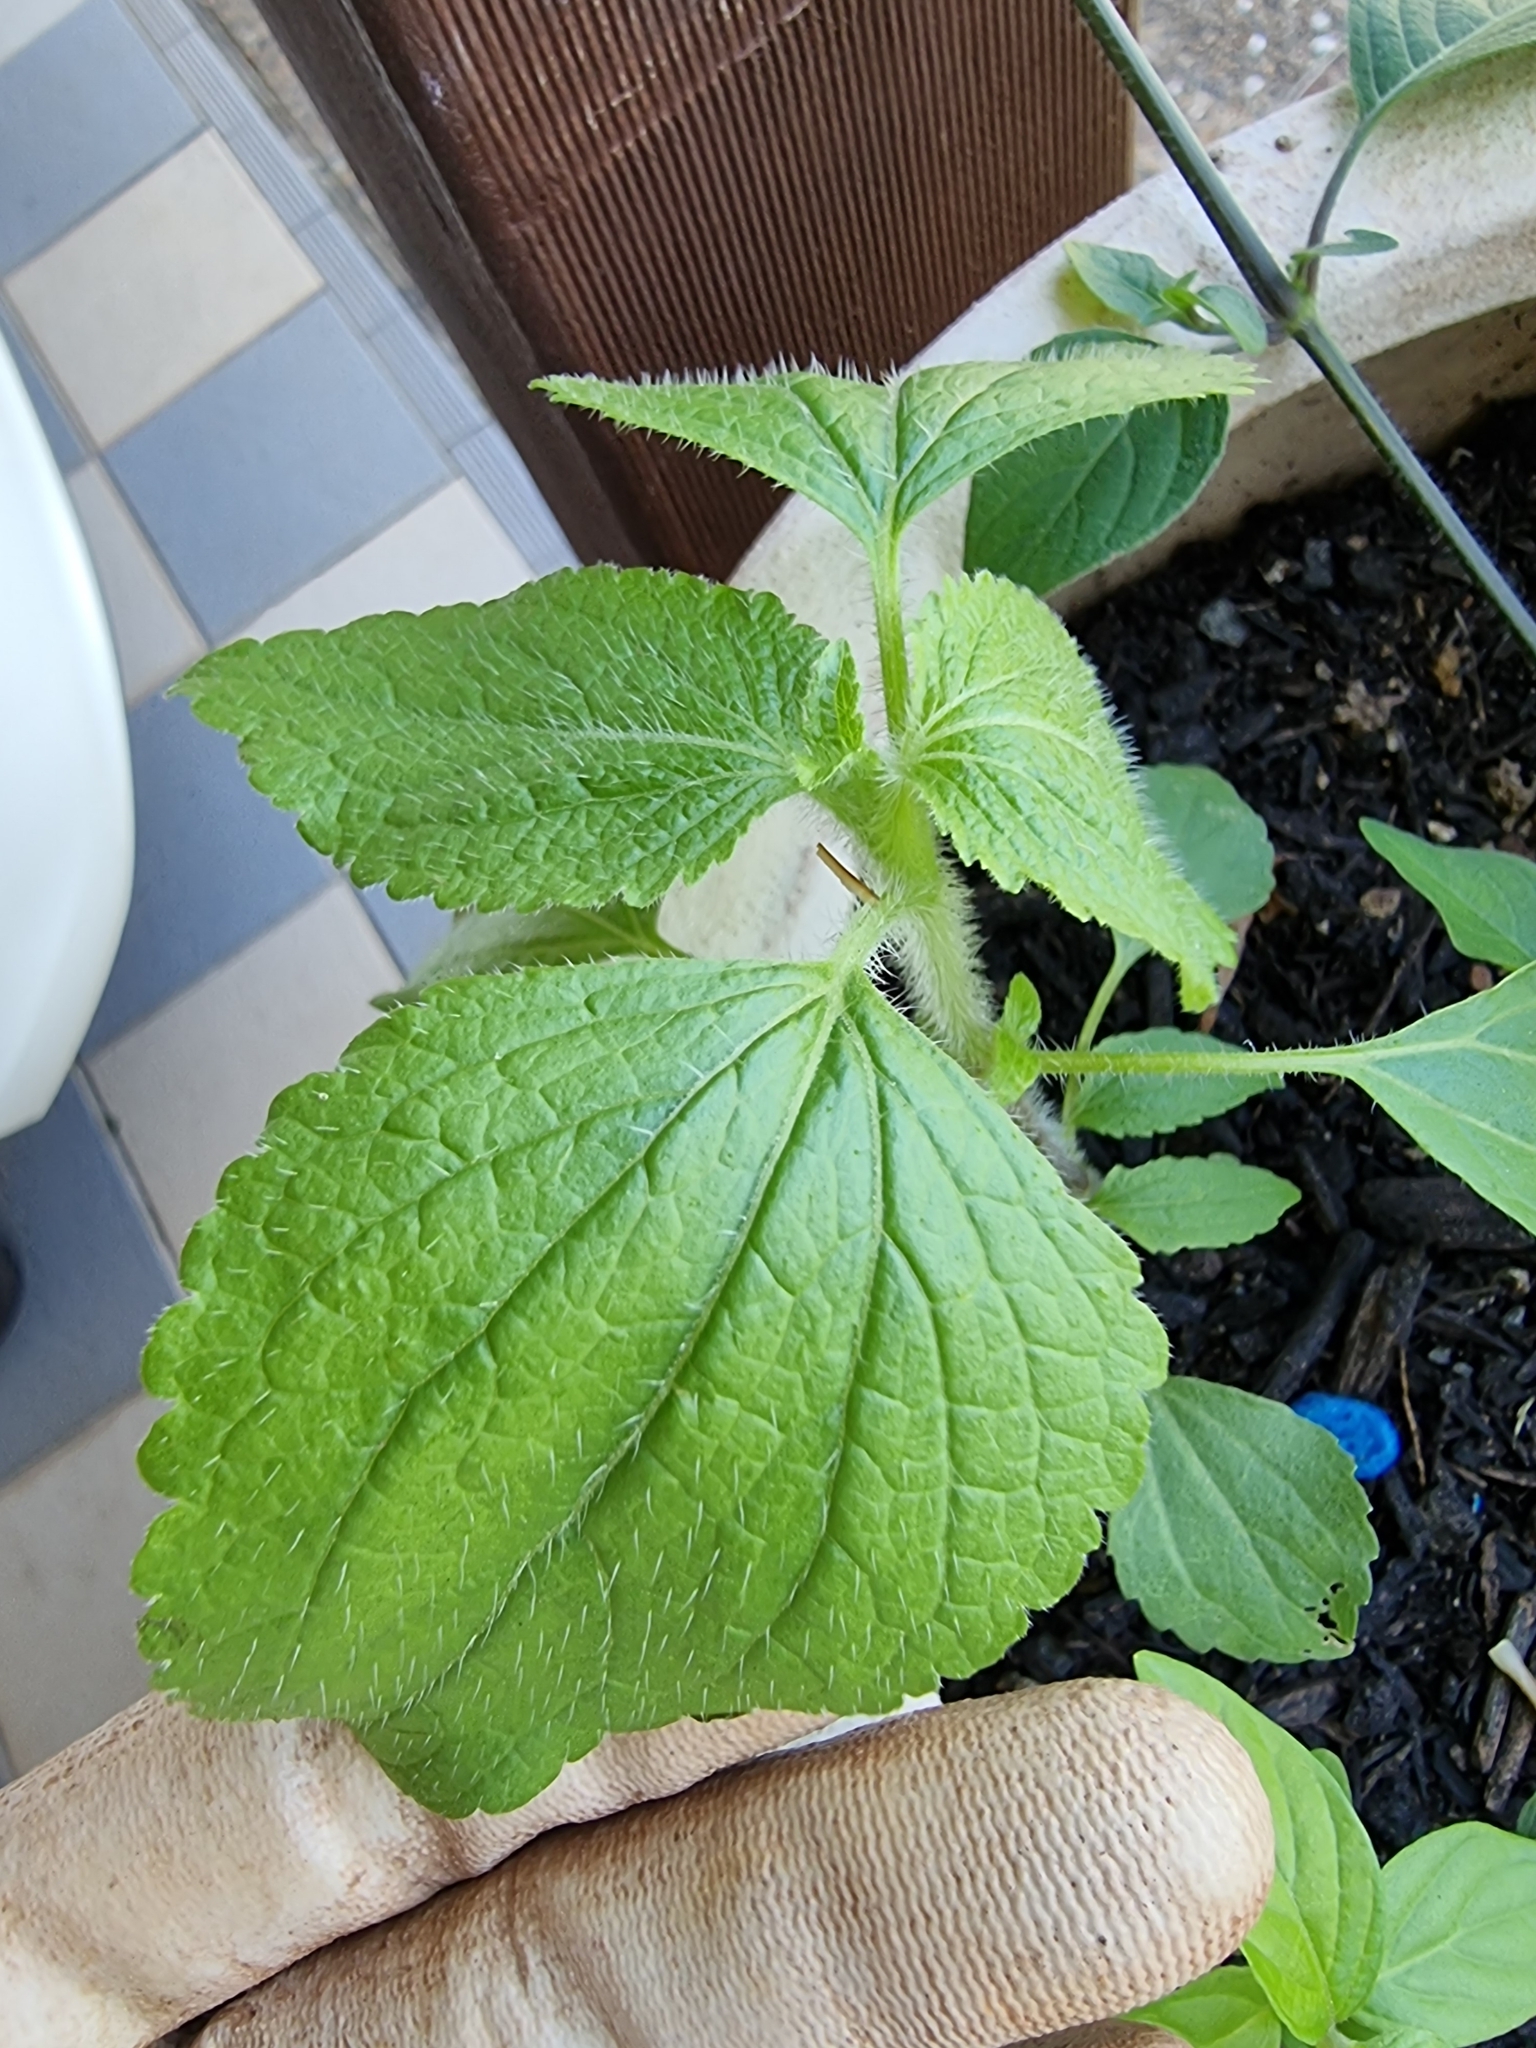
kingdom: Plantae
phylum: Tracheophyta
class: Magnoliopsida
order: Asterales
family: Asteraceae
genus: Ageratum
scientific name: Ageratum conyzoides
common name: Tropical whiteweed
